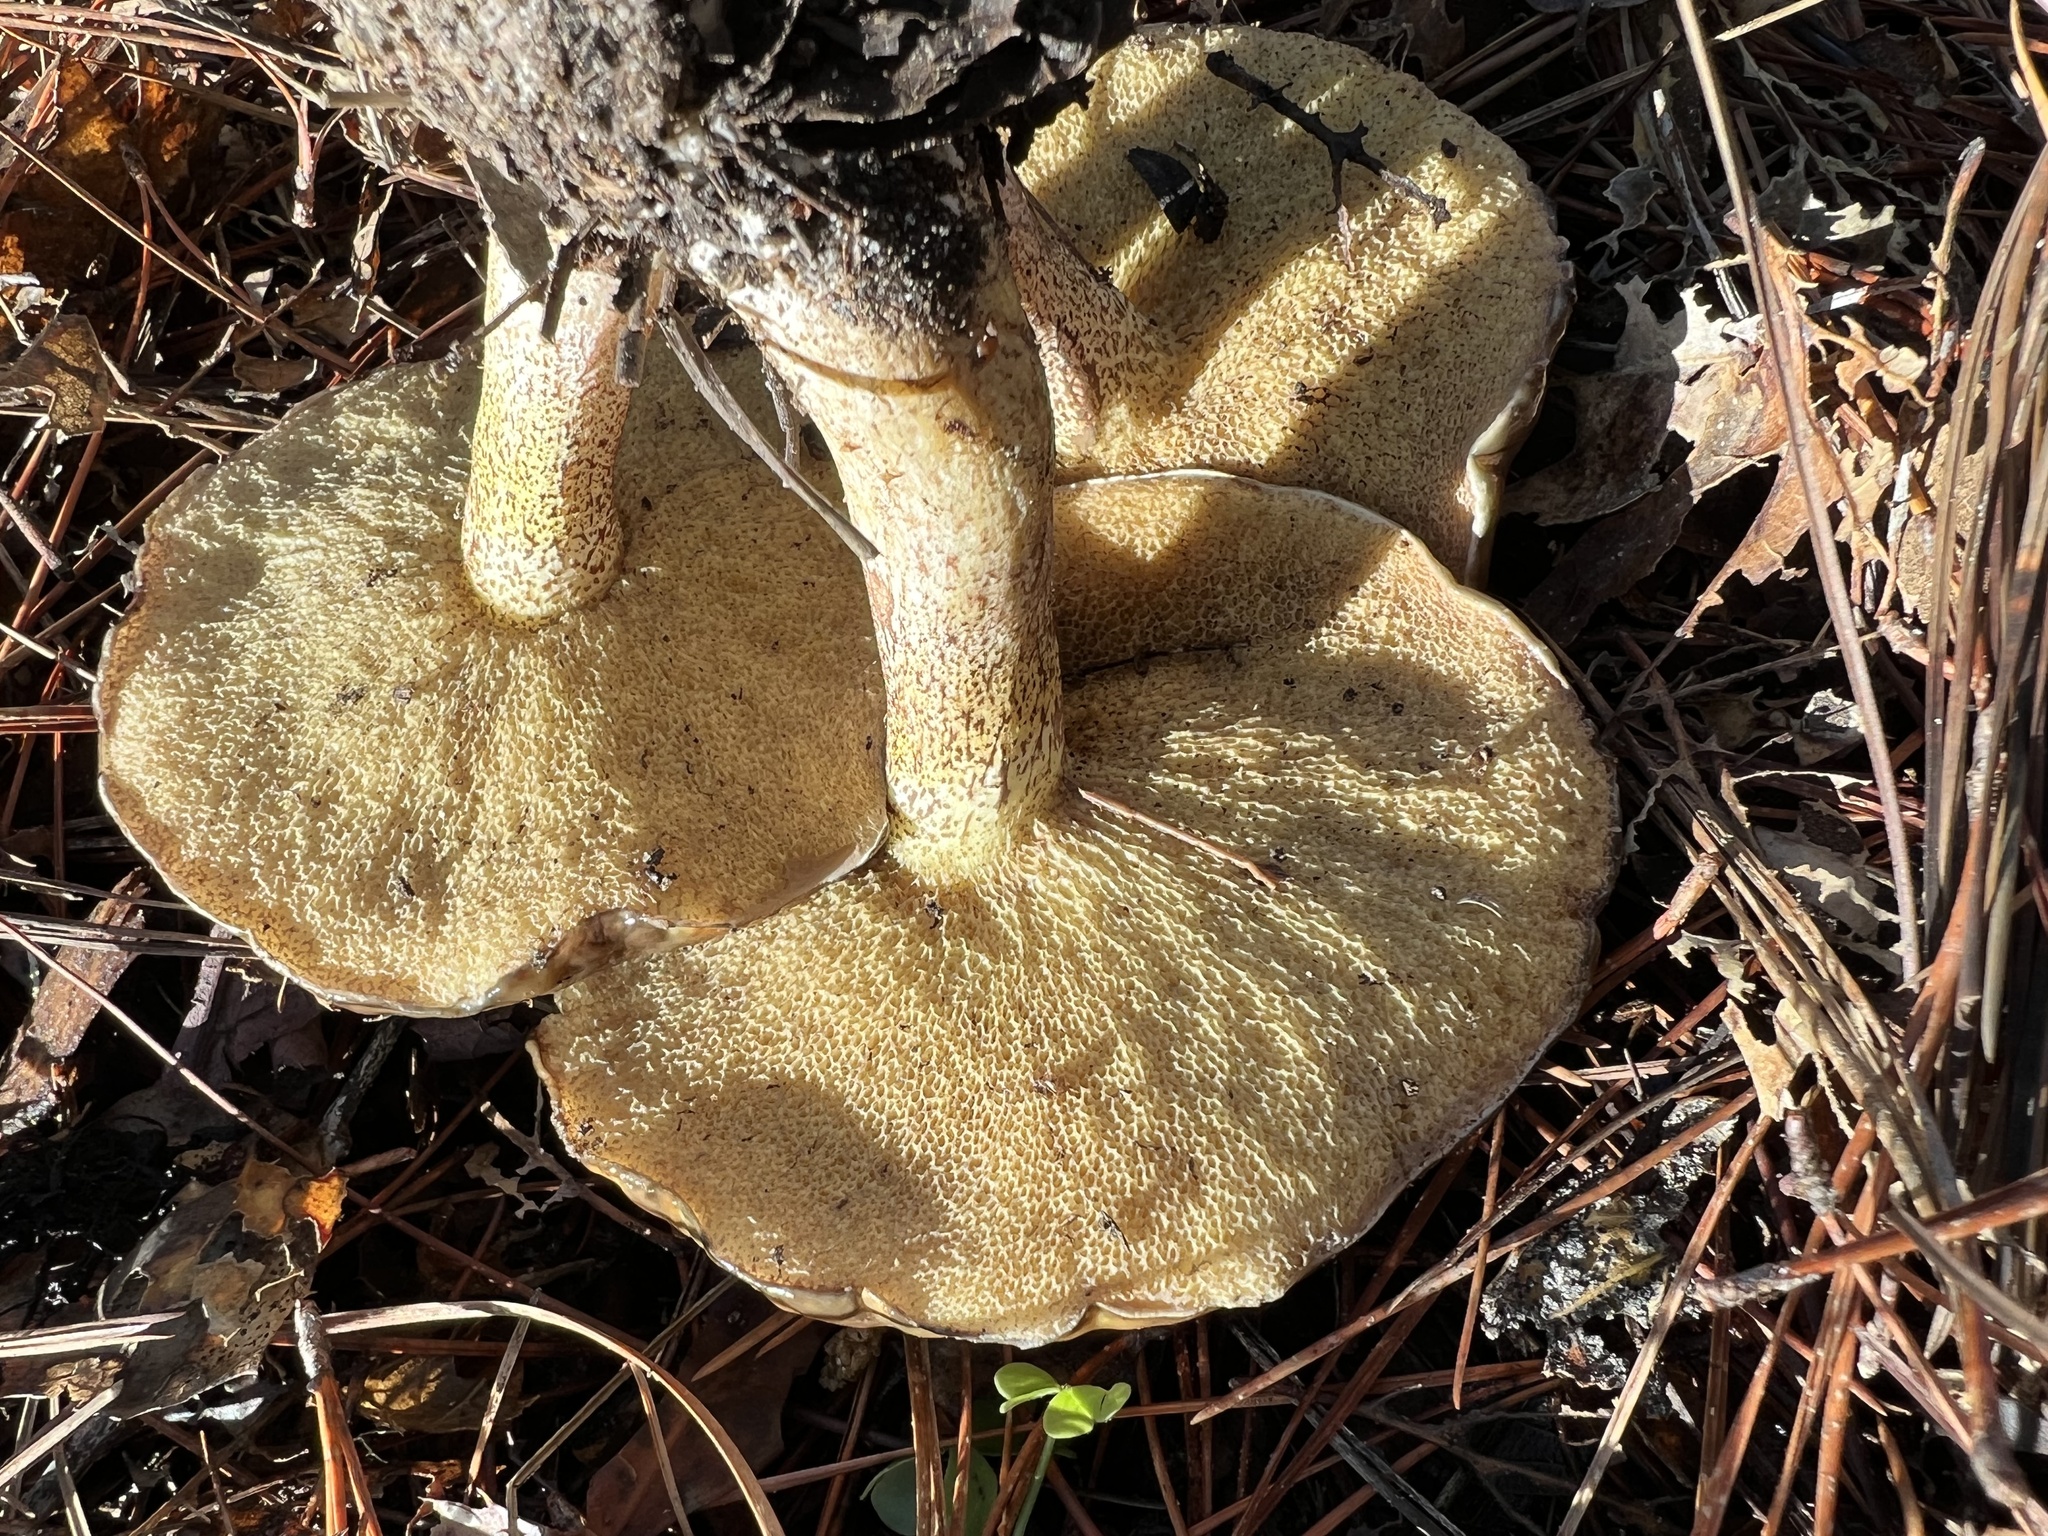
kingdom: Fungi
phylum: Basidiomycota
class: Agaricomycetes
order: Boletales
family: Suillaceae
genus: Suillus
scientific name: Suillus pungens
